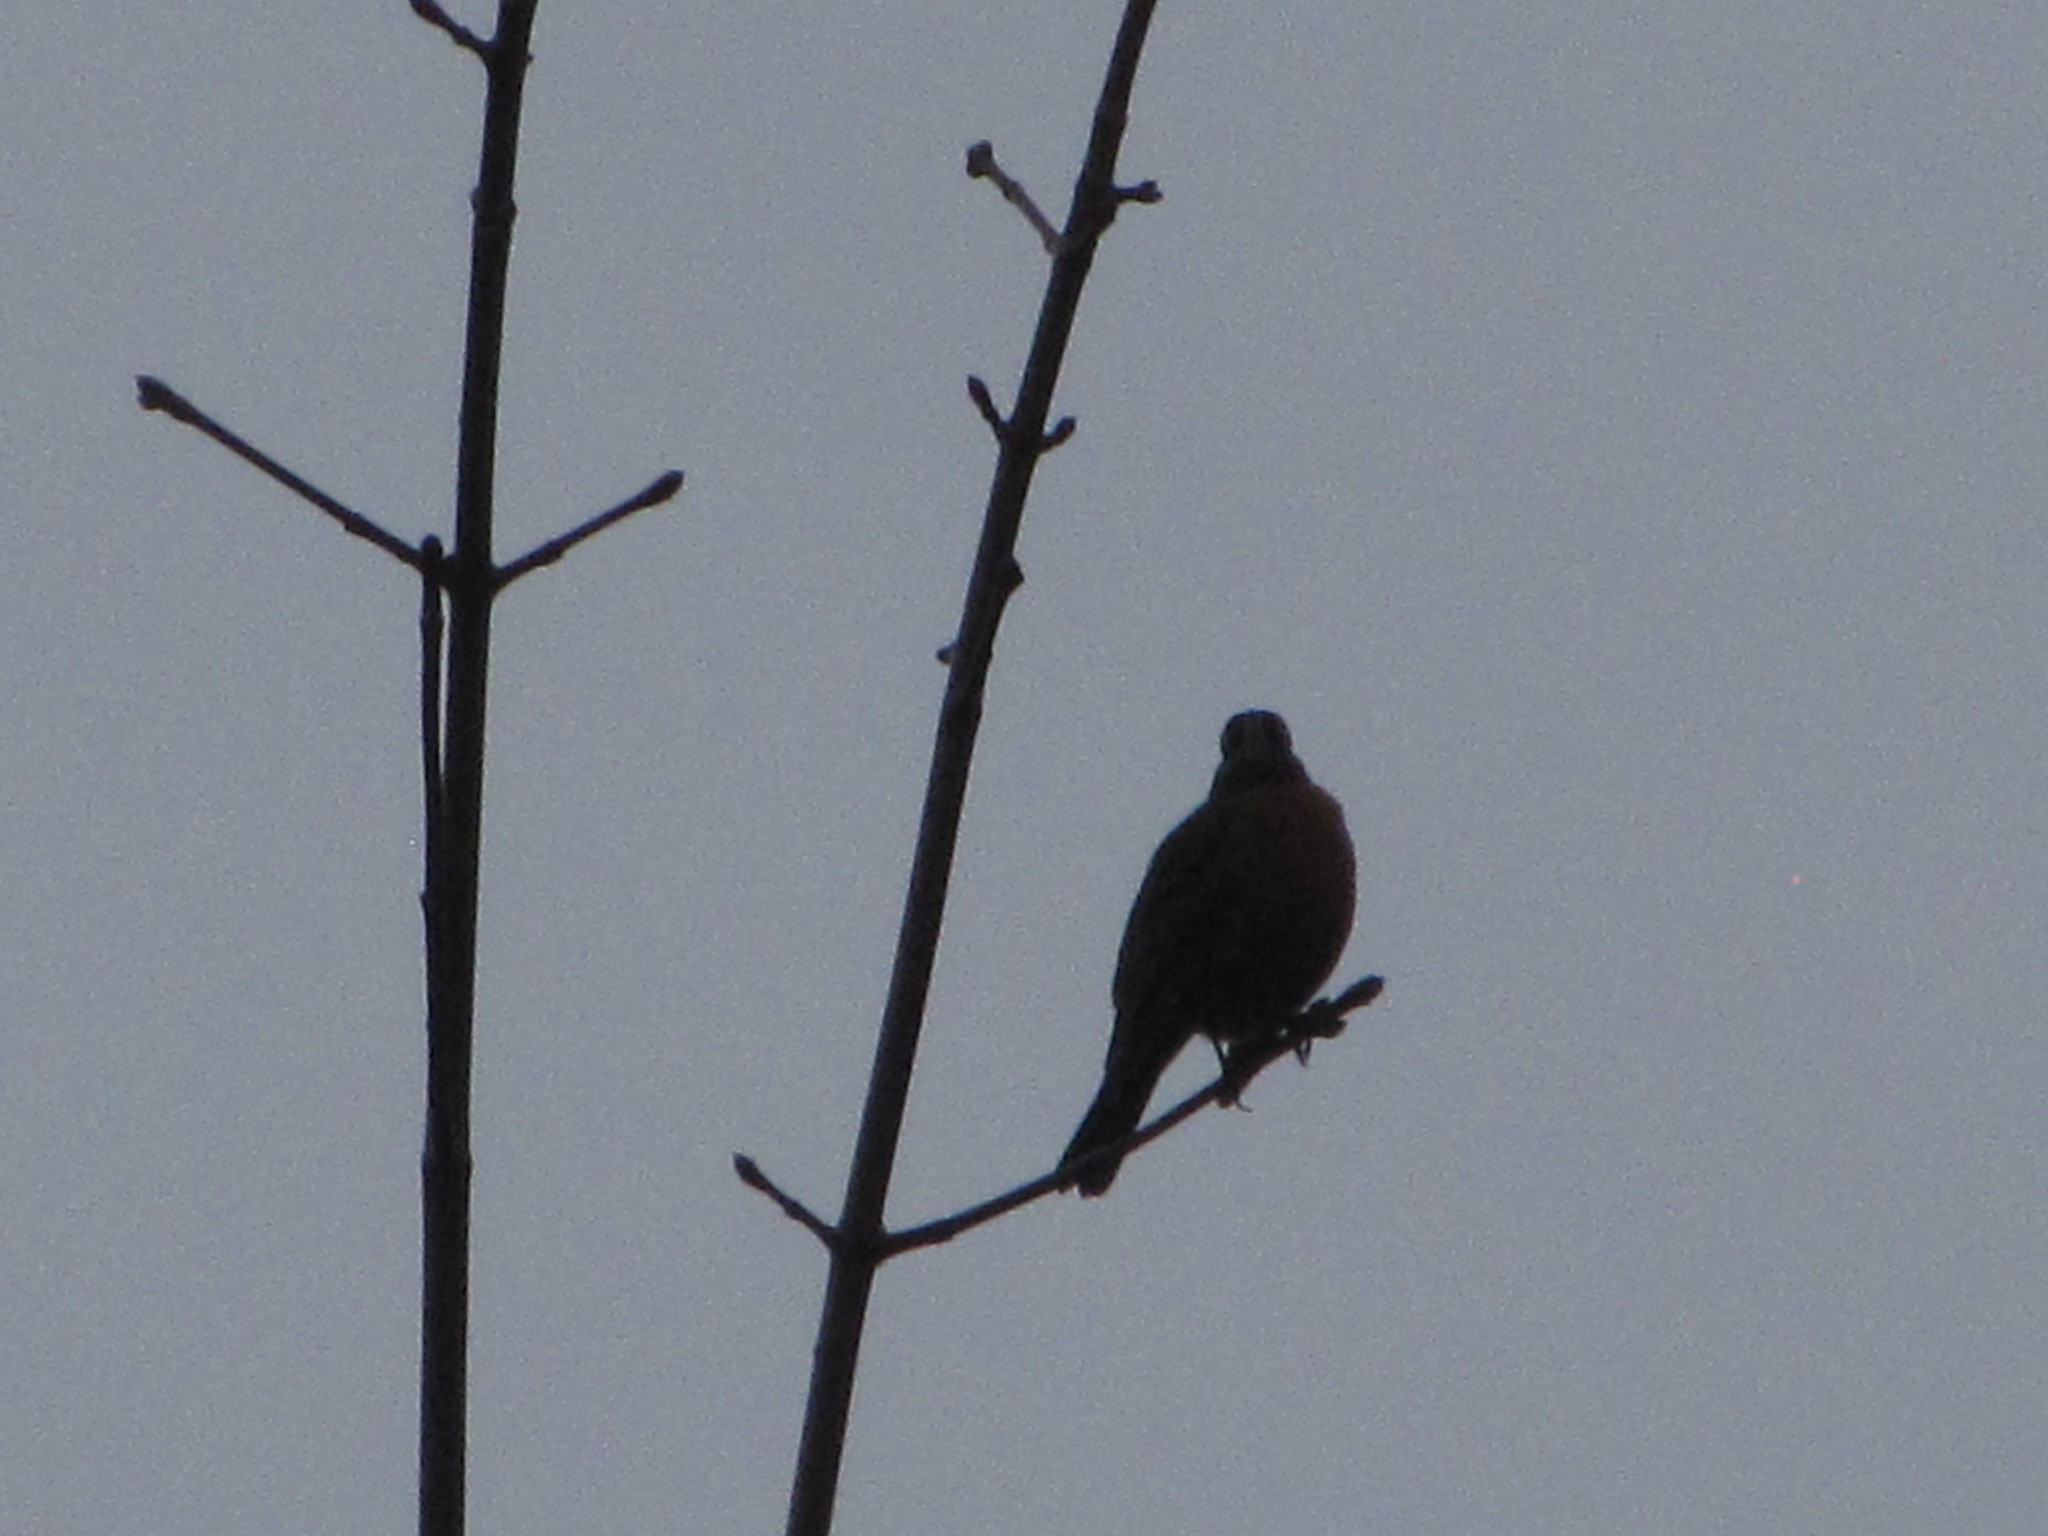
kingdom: Animalia
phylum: Chordata
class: Aves
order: Passeriformes
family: Turdidae
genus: Turdus
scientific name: Turdus migratorius
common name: American robin
